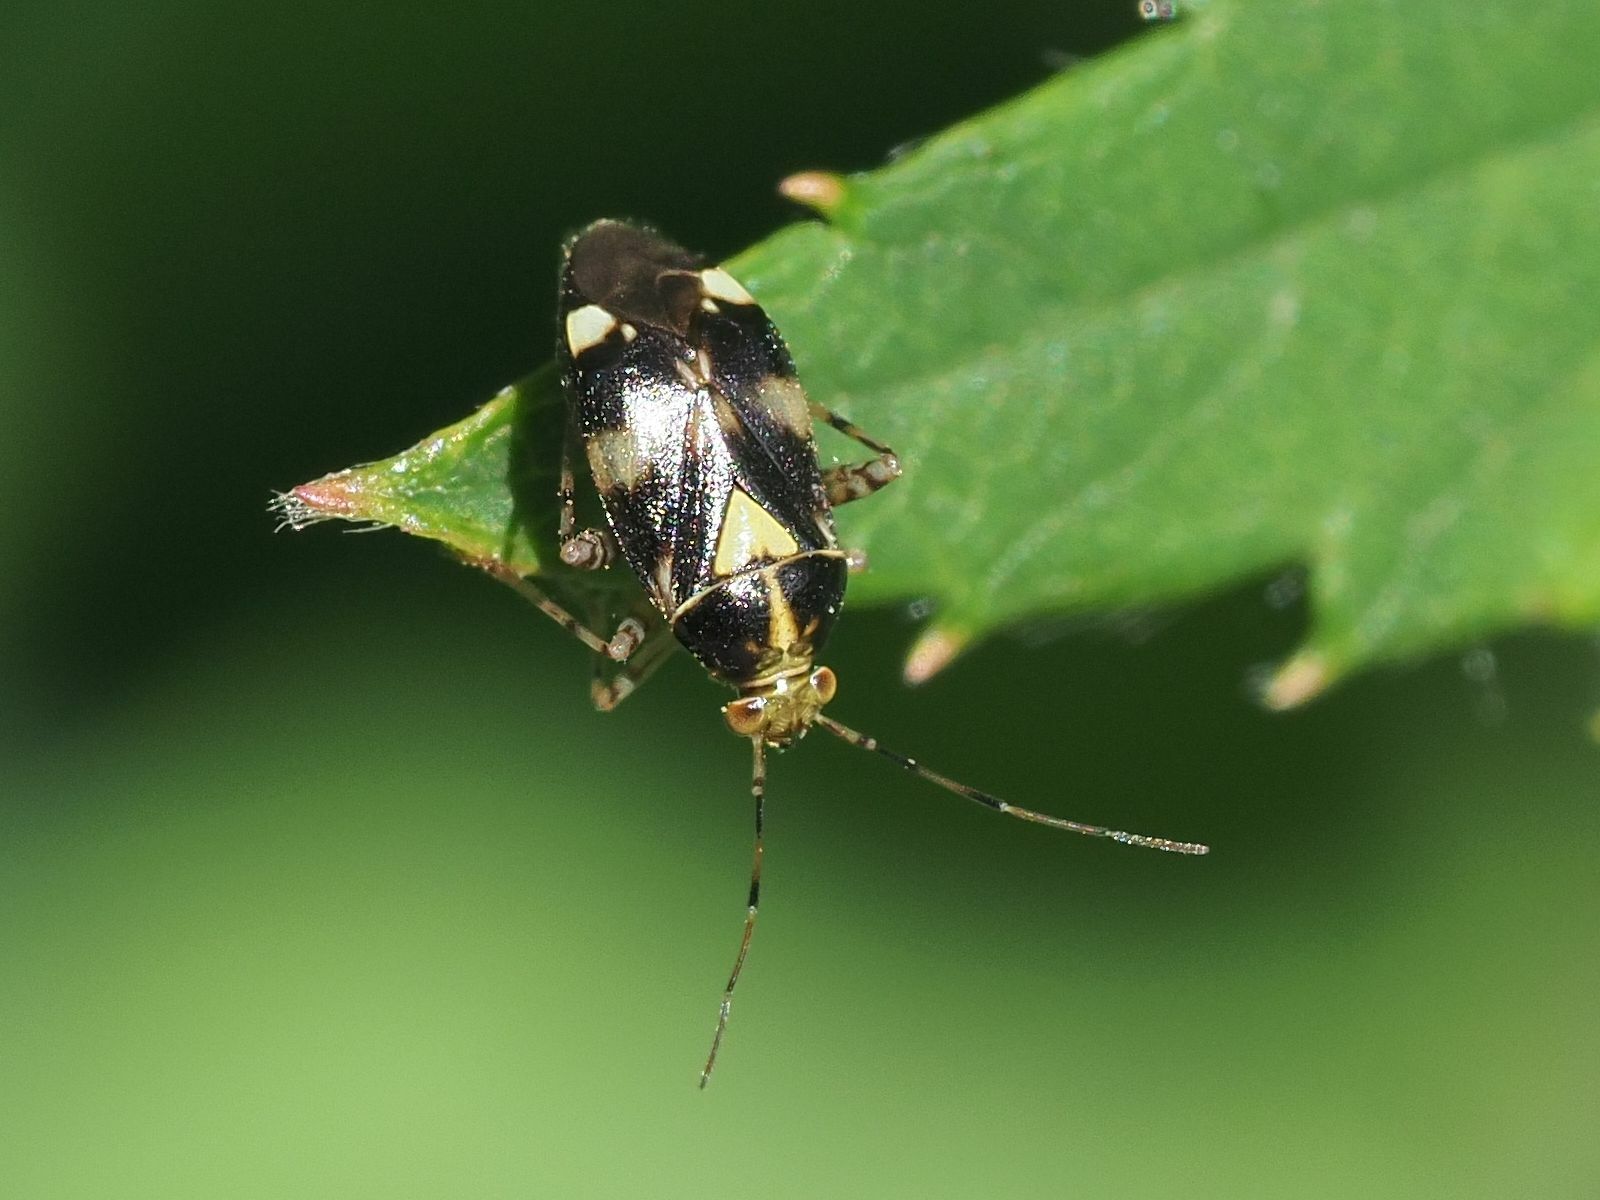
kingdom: Animalia
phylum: Arthropoda
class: Insecta
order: Hemiptera
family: Miridae
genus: Liocoris
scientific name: Liocoris tripustulatus
